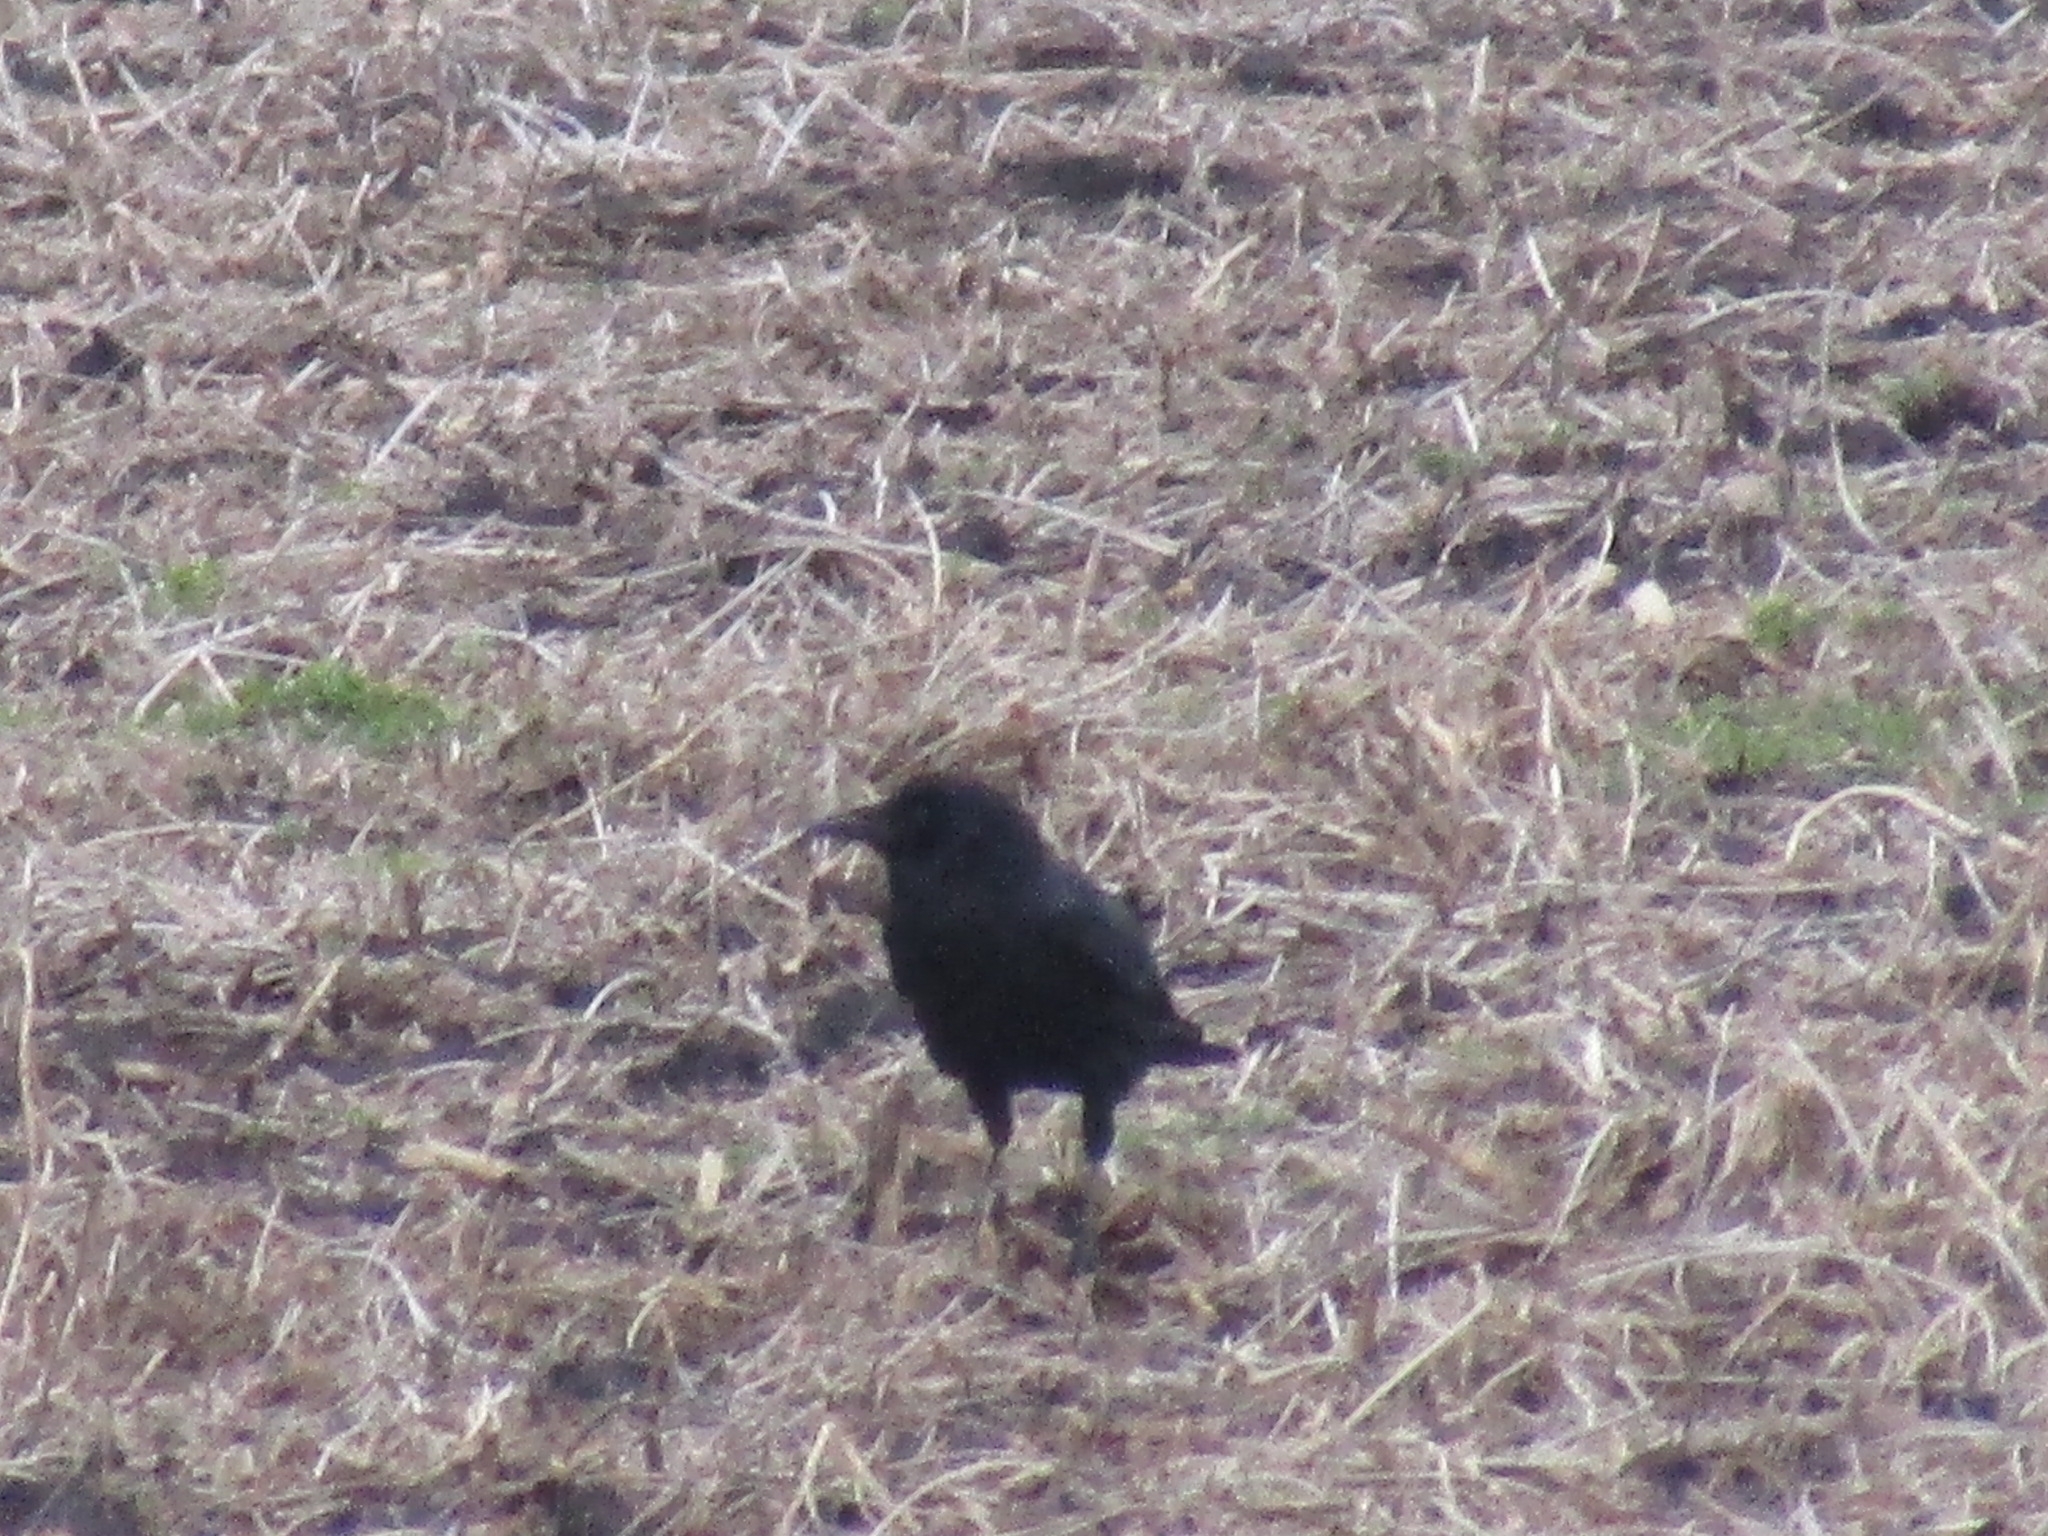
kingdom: Animalia
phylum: Chordata
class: Aves
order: Passeriformes
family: Corvidae
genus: Corvus
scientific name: Corvus brachyrhynchos
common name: American crow
